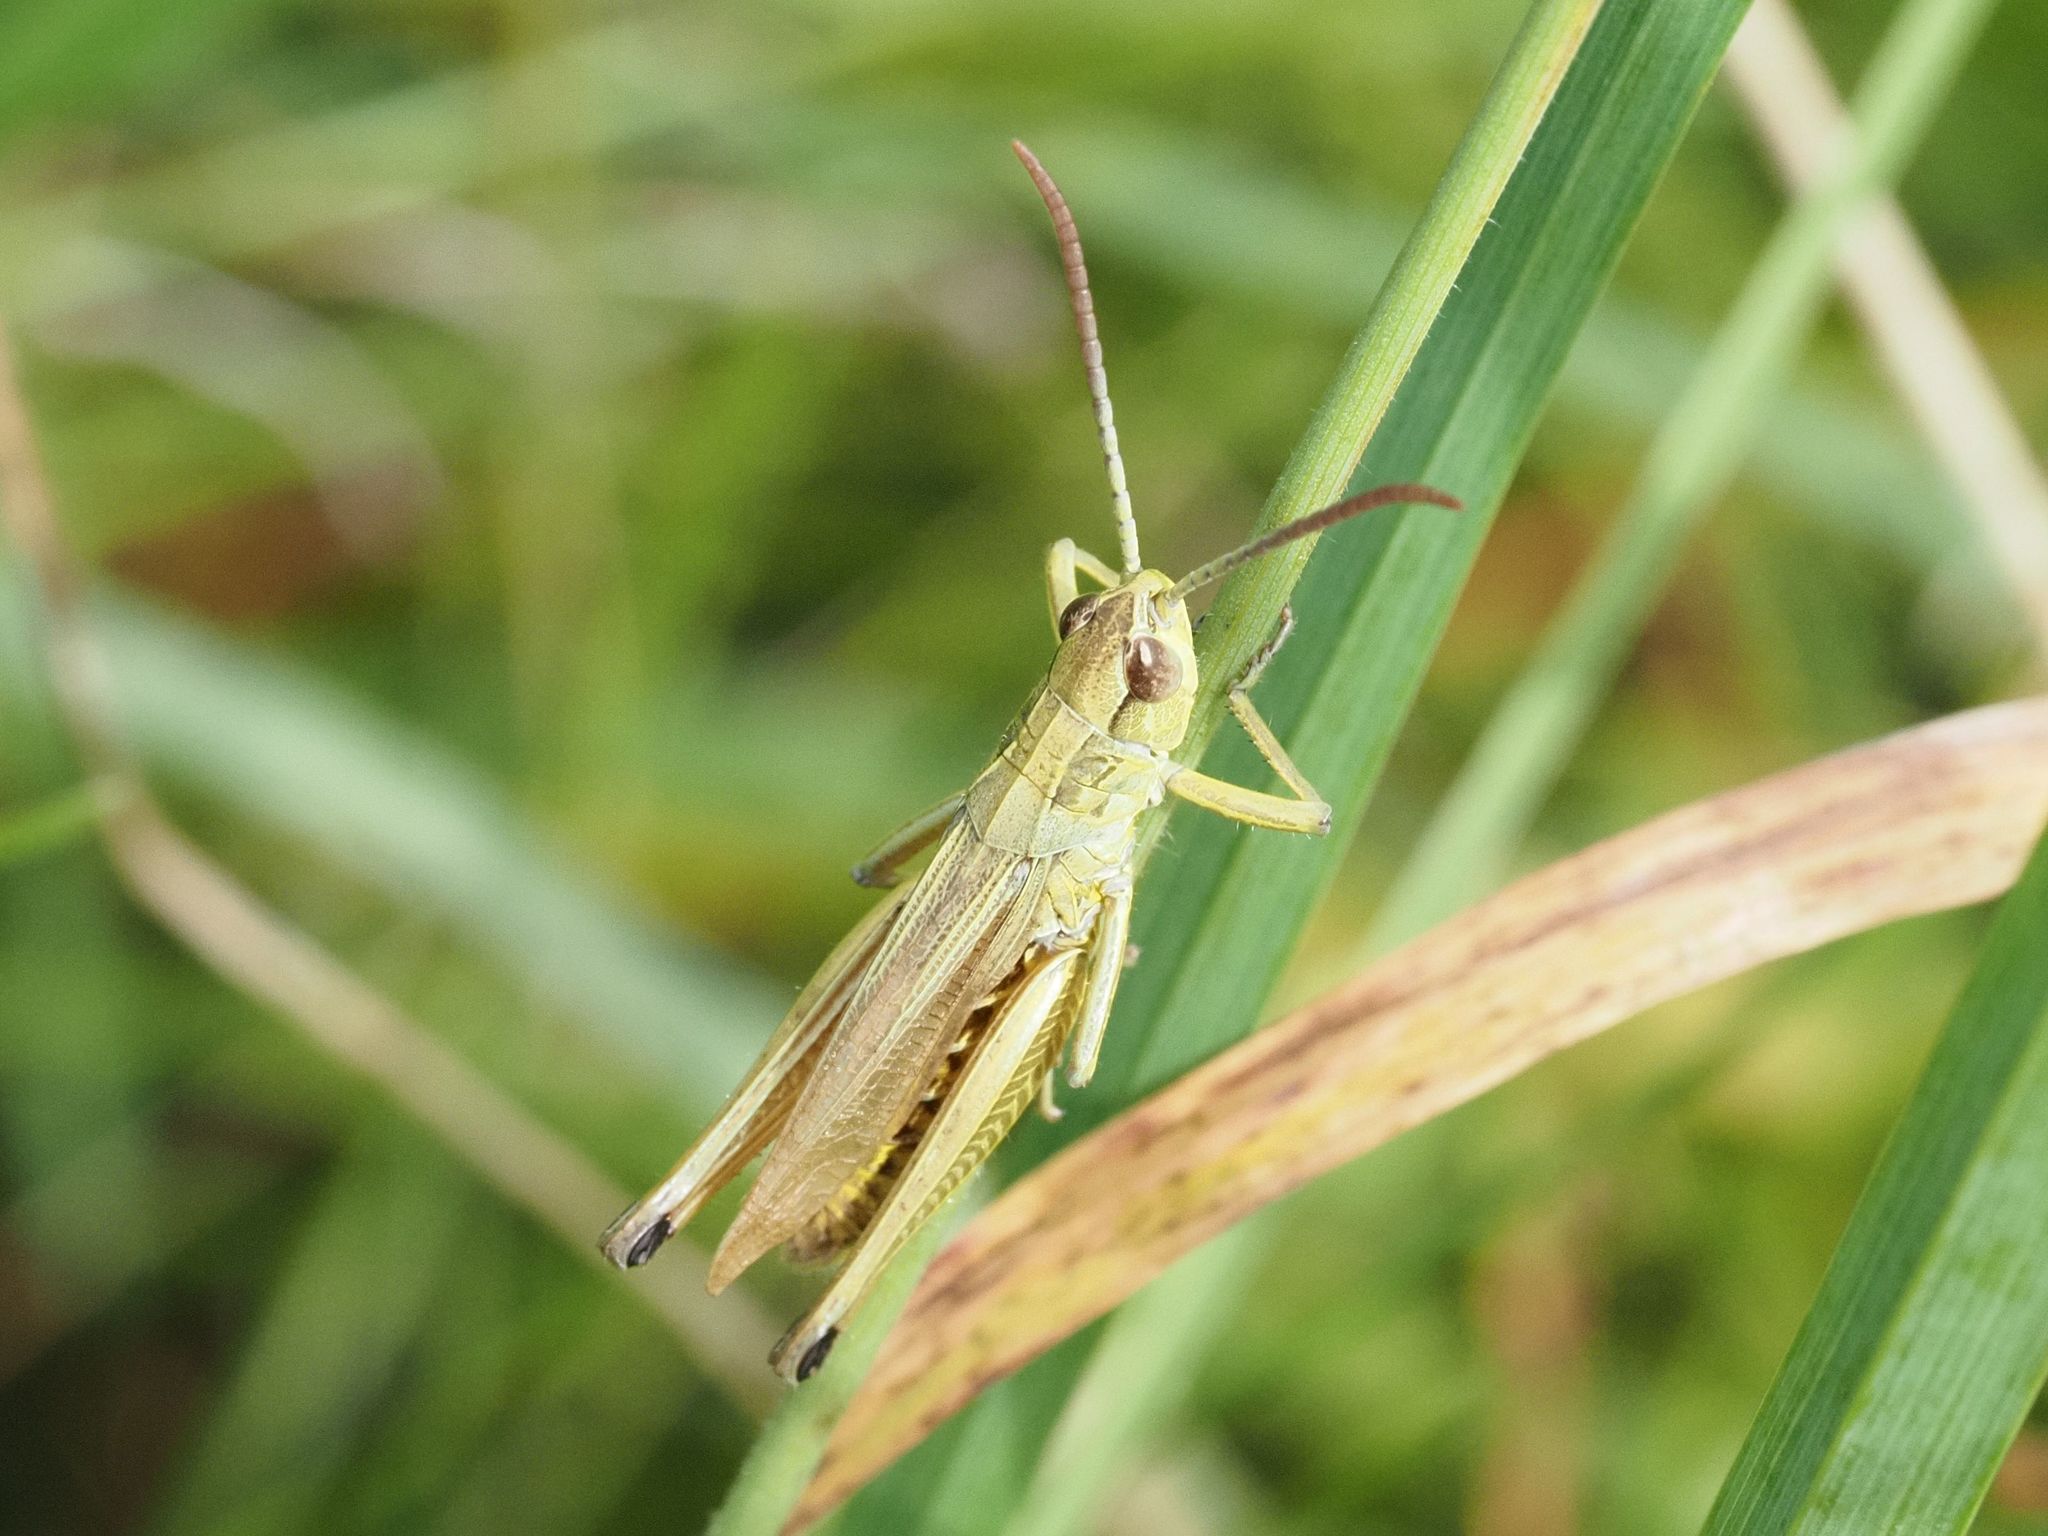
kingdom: Animalia
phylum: Arthropoda
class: Insecta
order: Orthoptera
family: Acrididae
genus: Pseudochorthippus
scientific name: Pseudochorthippus parallelus
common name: Meadow grasshopper
